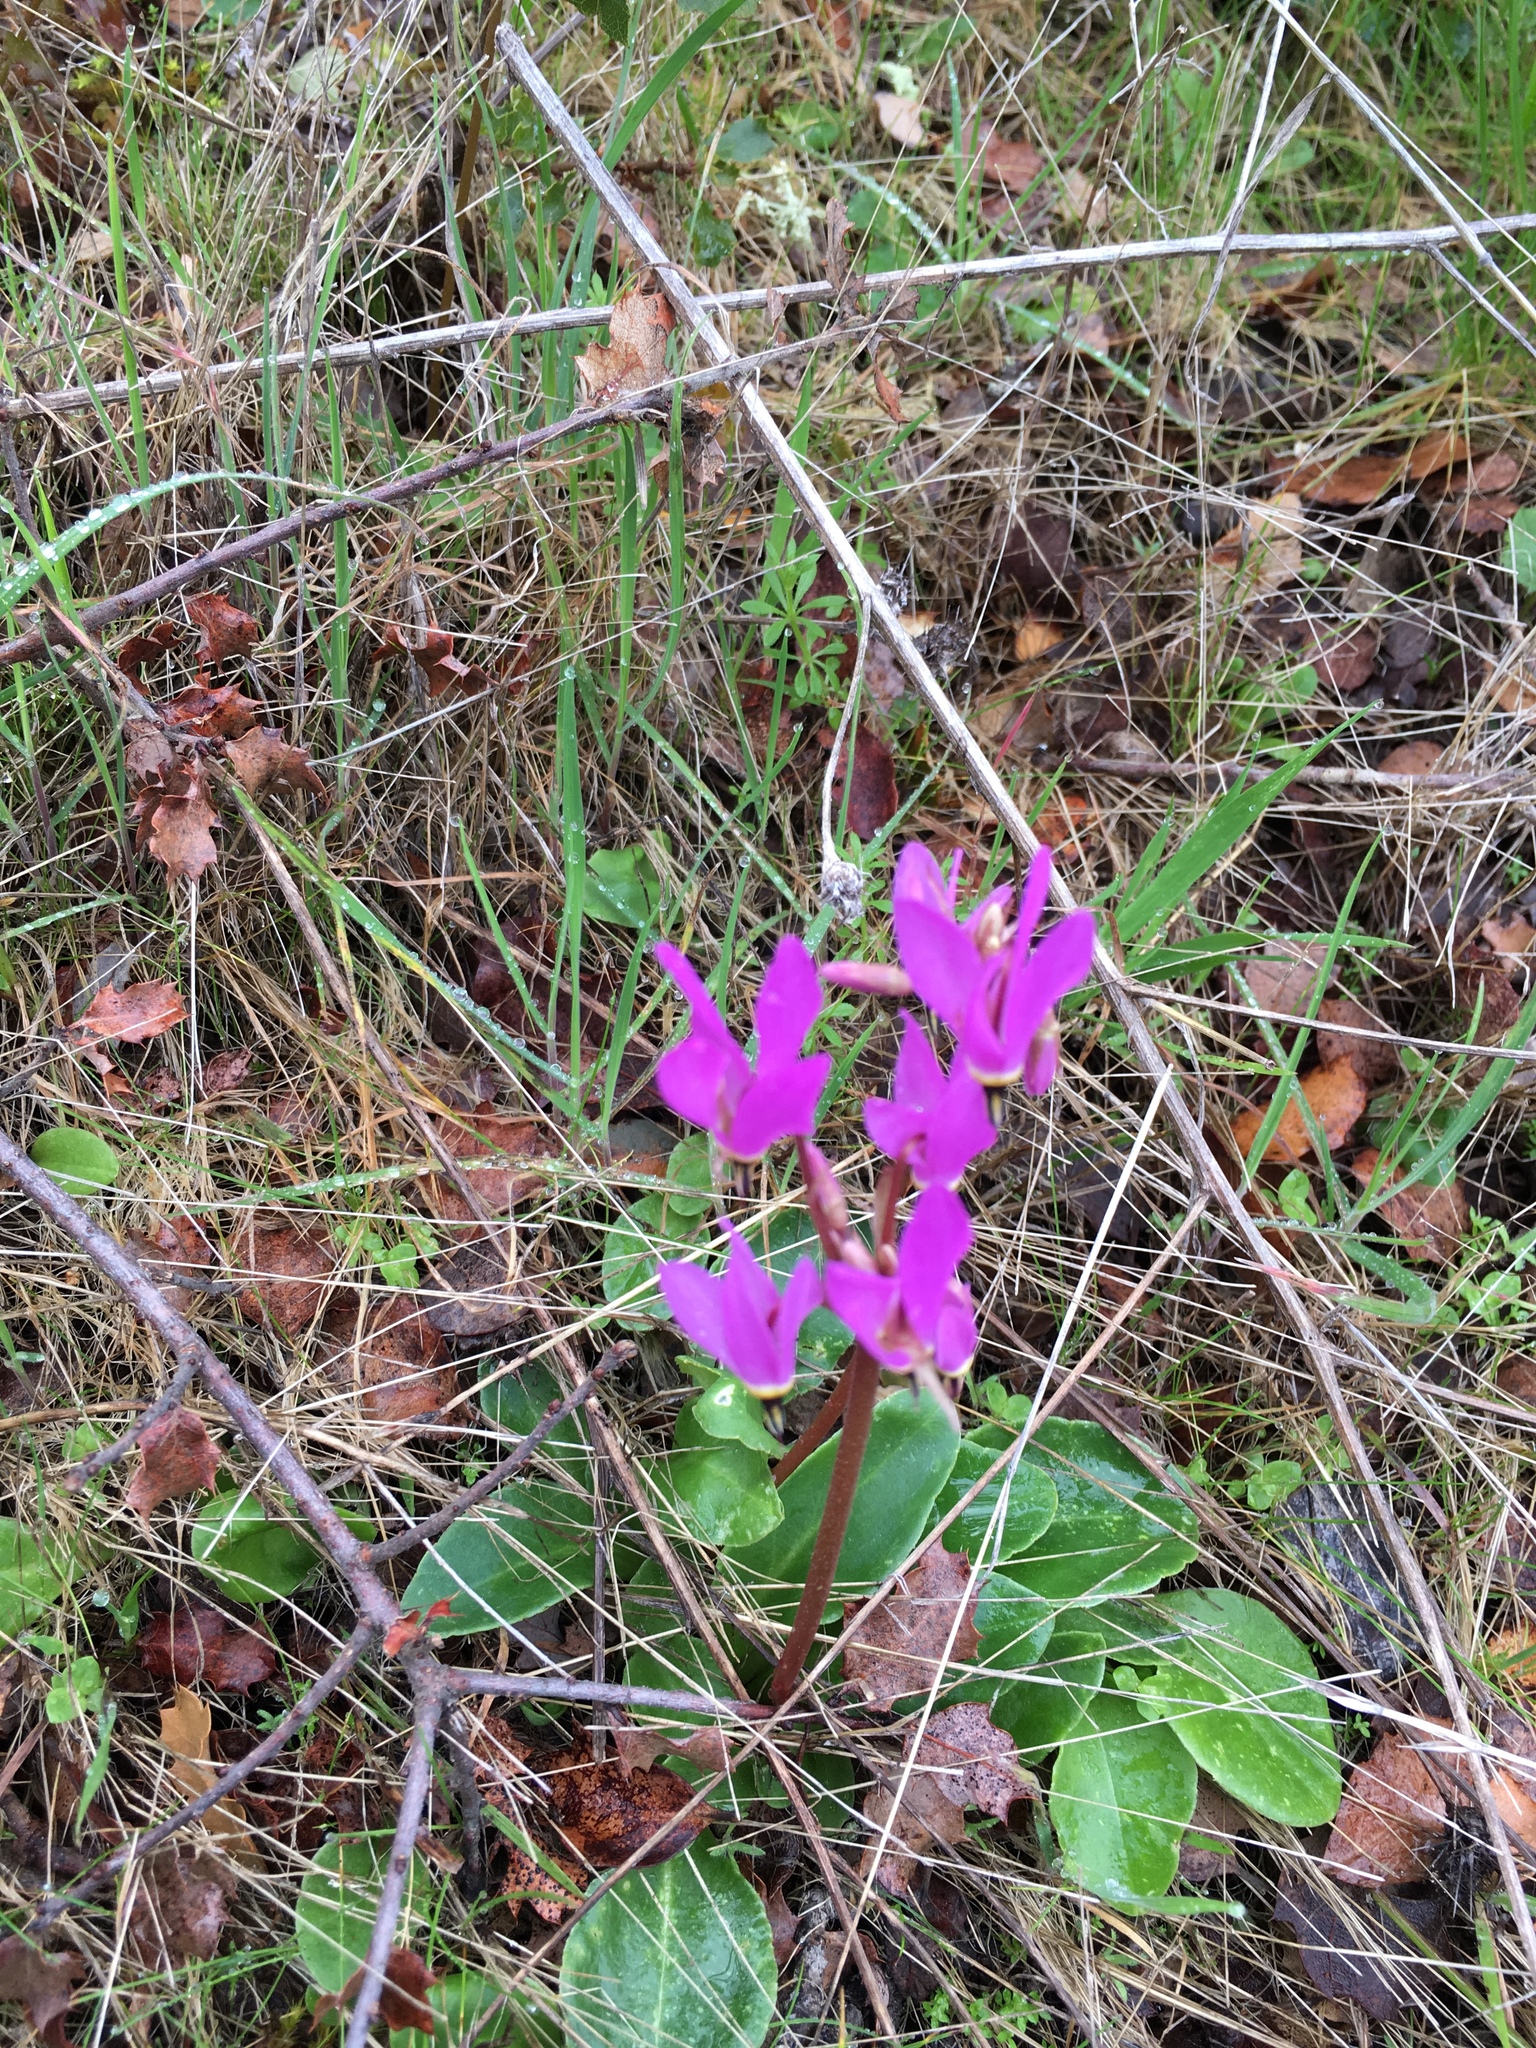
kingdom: Plantae
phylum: Tracheophyta
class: Magnoliopsida
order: Ericales
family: Primulaceae
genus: Dodecatheon
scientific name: Dodecatheon hendersonii
